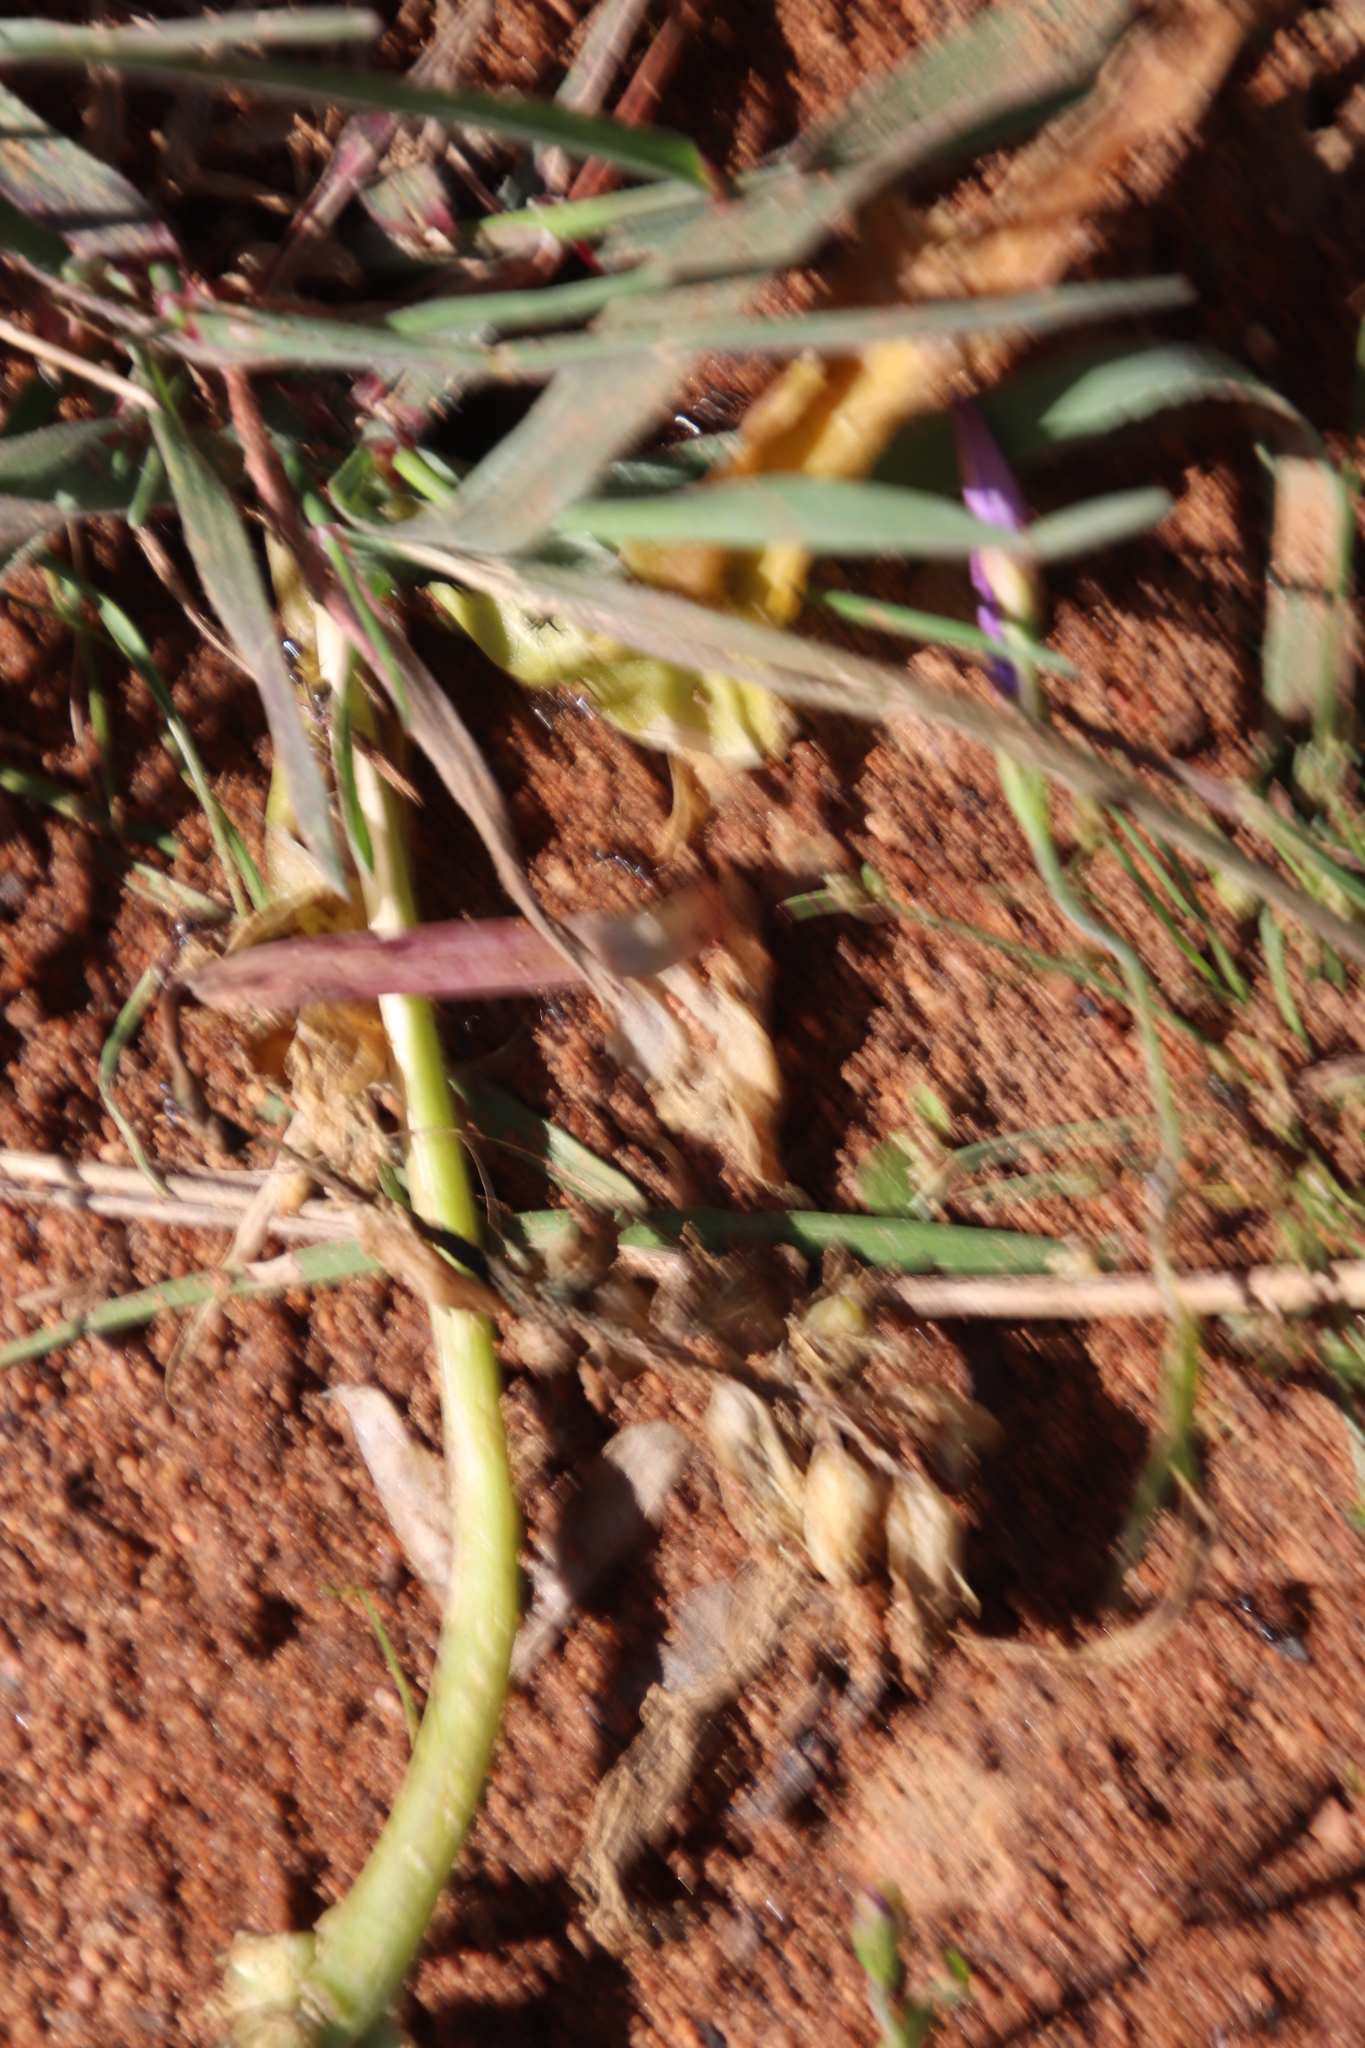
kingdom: Plantae
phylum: Tracheophyta
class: Liliopsida
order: Asparagales
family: Iridaceae
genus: Geissorhiza
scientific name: Geissorhiza aspera
